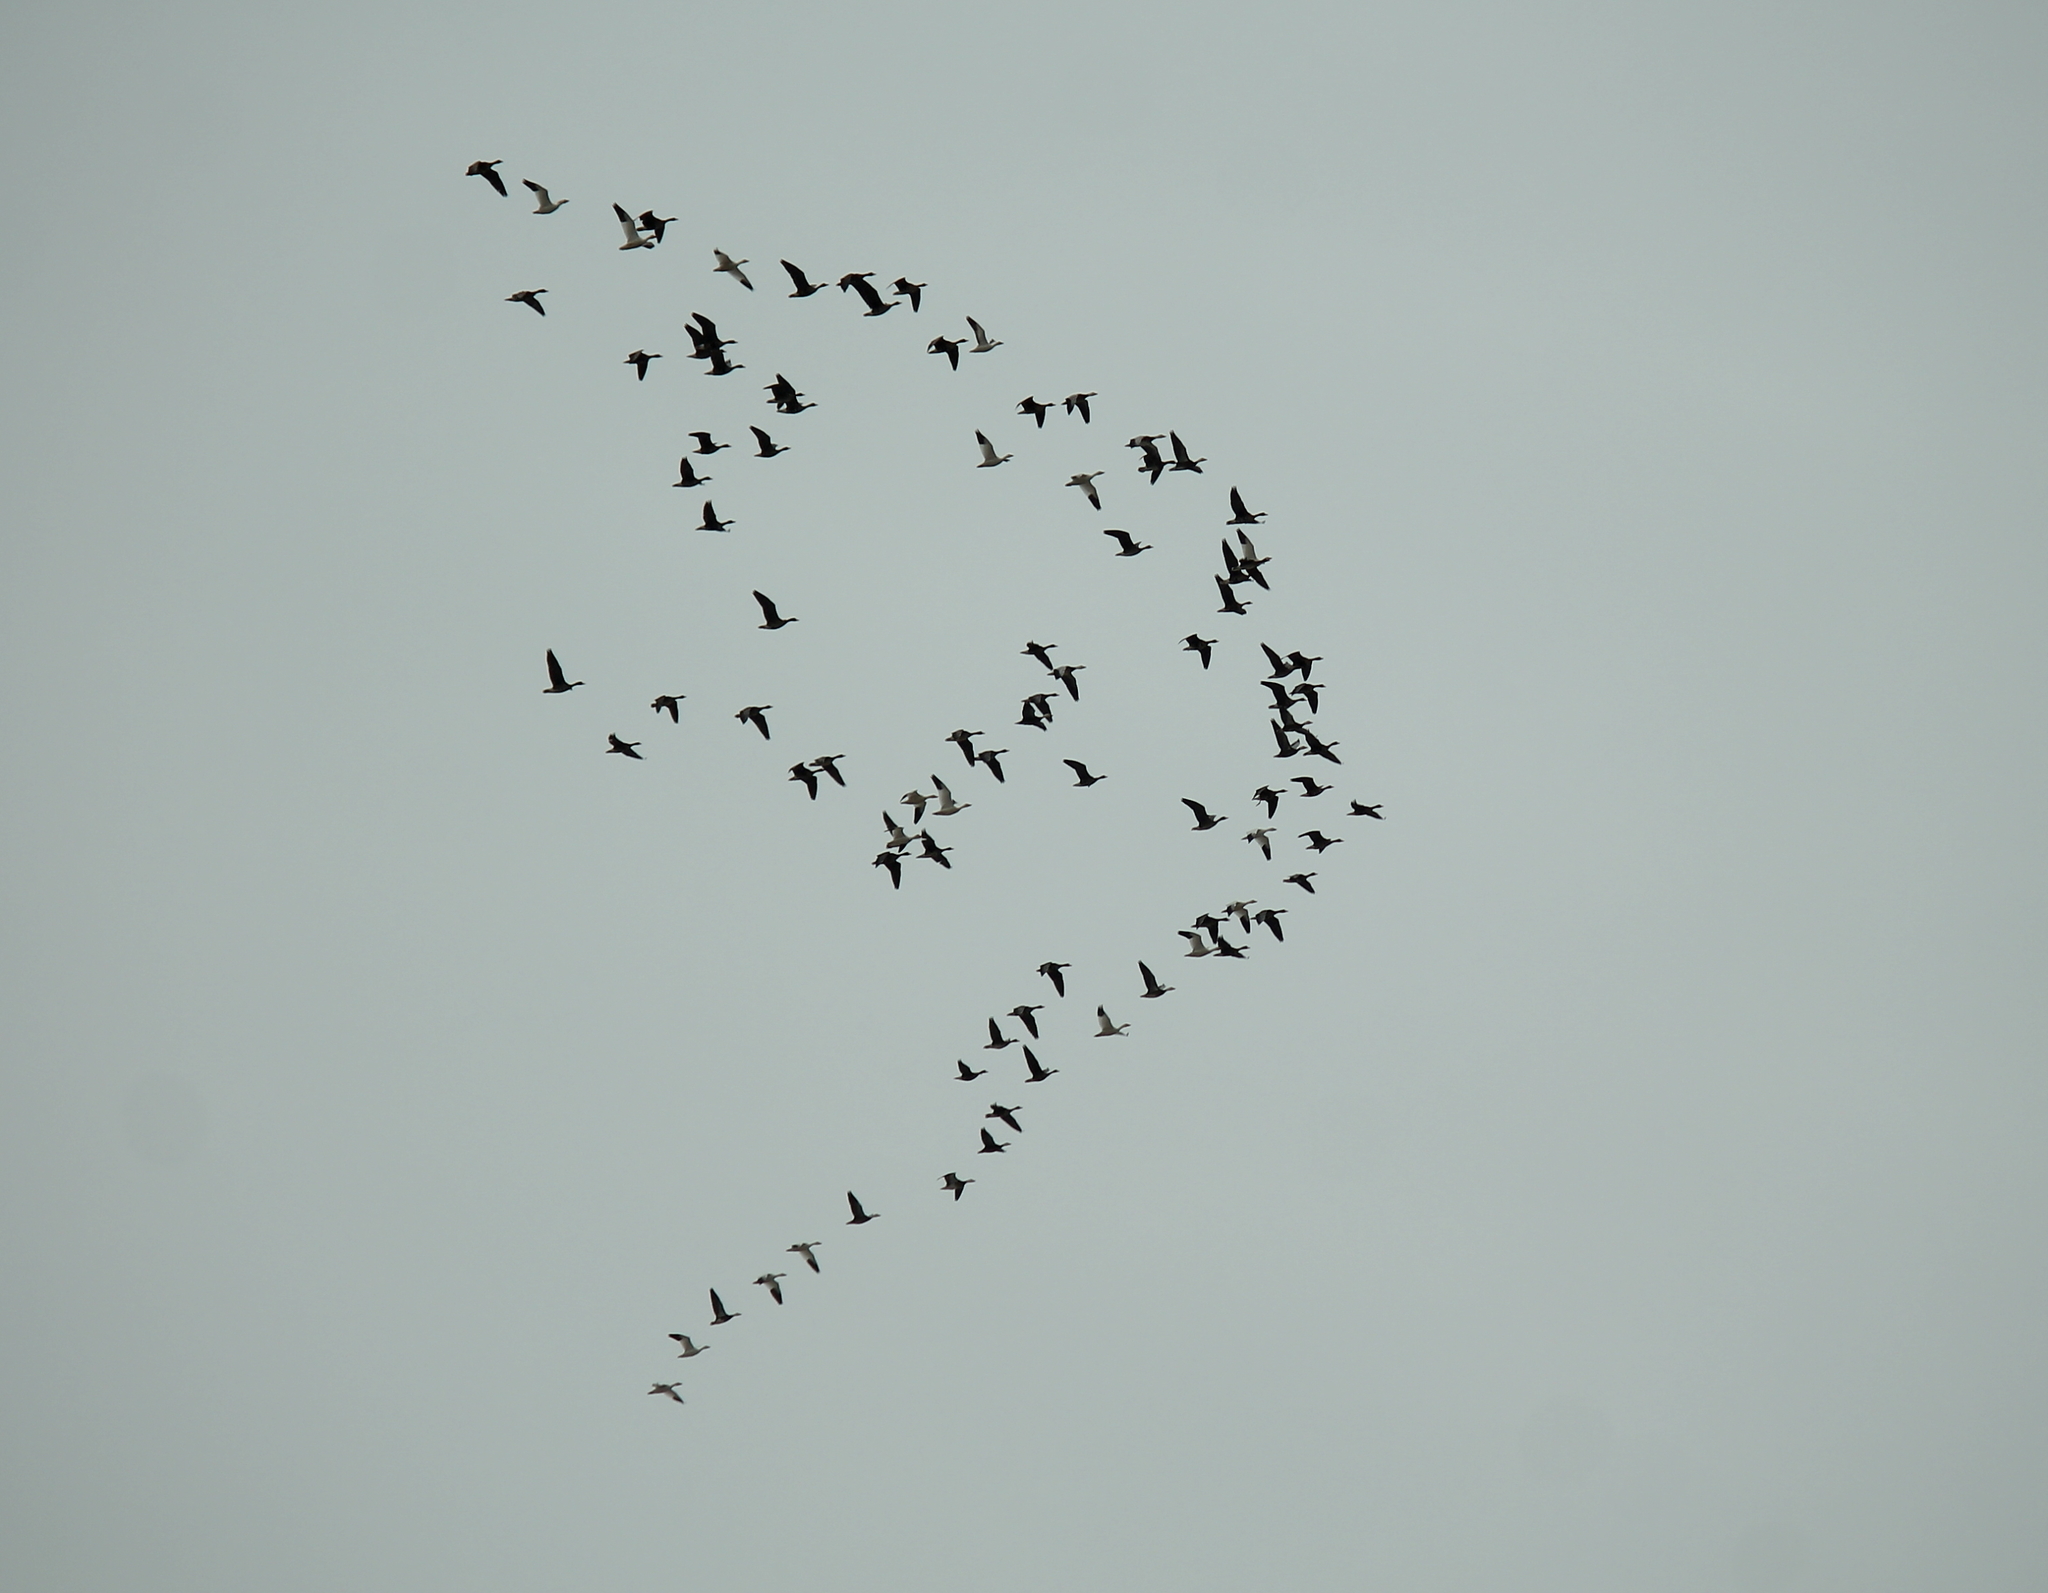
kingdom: Animalia
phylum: Chordata
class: Aves
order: Anseriformes
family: Anatidae
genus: Anser
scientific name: Anser caerulescens
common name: Snow goose
